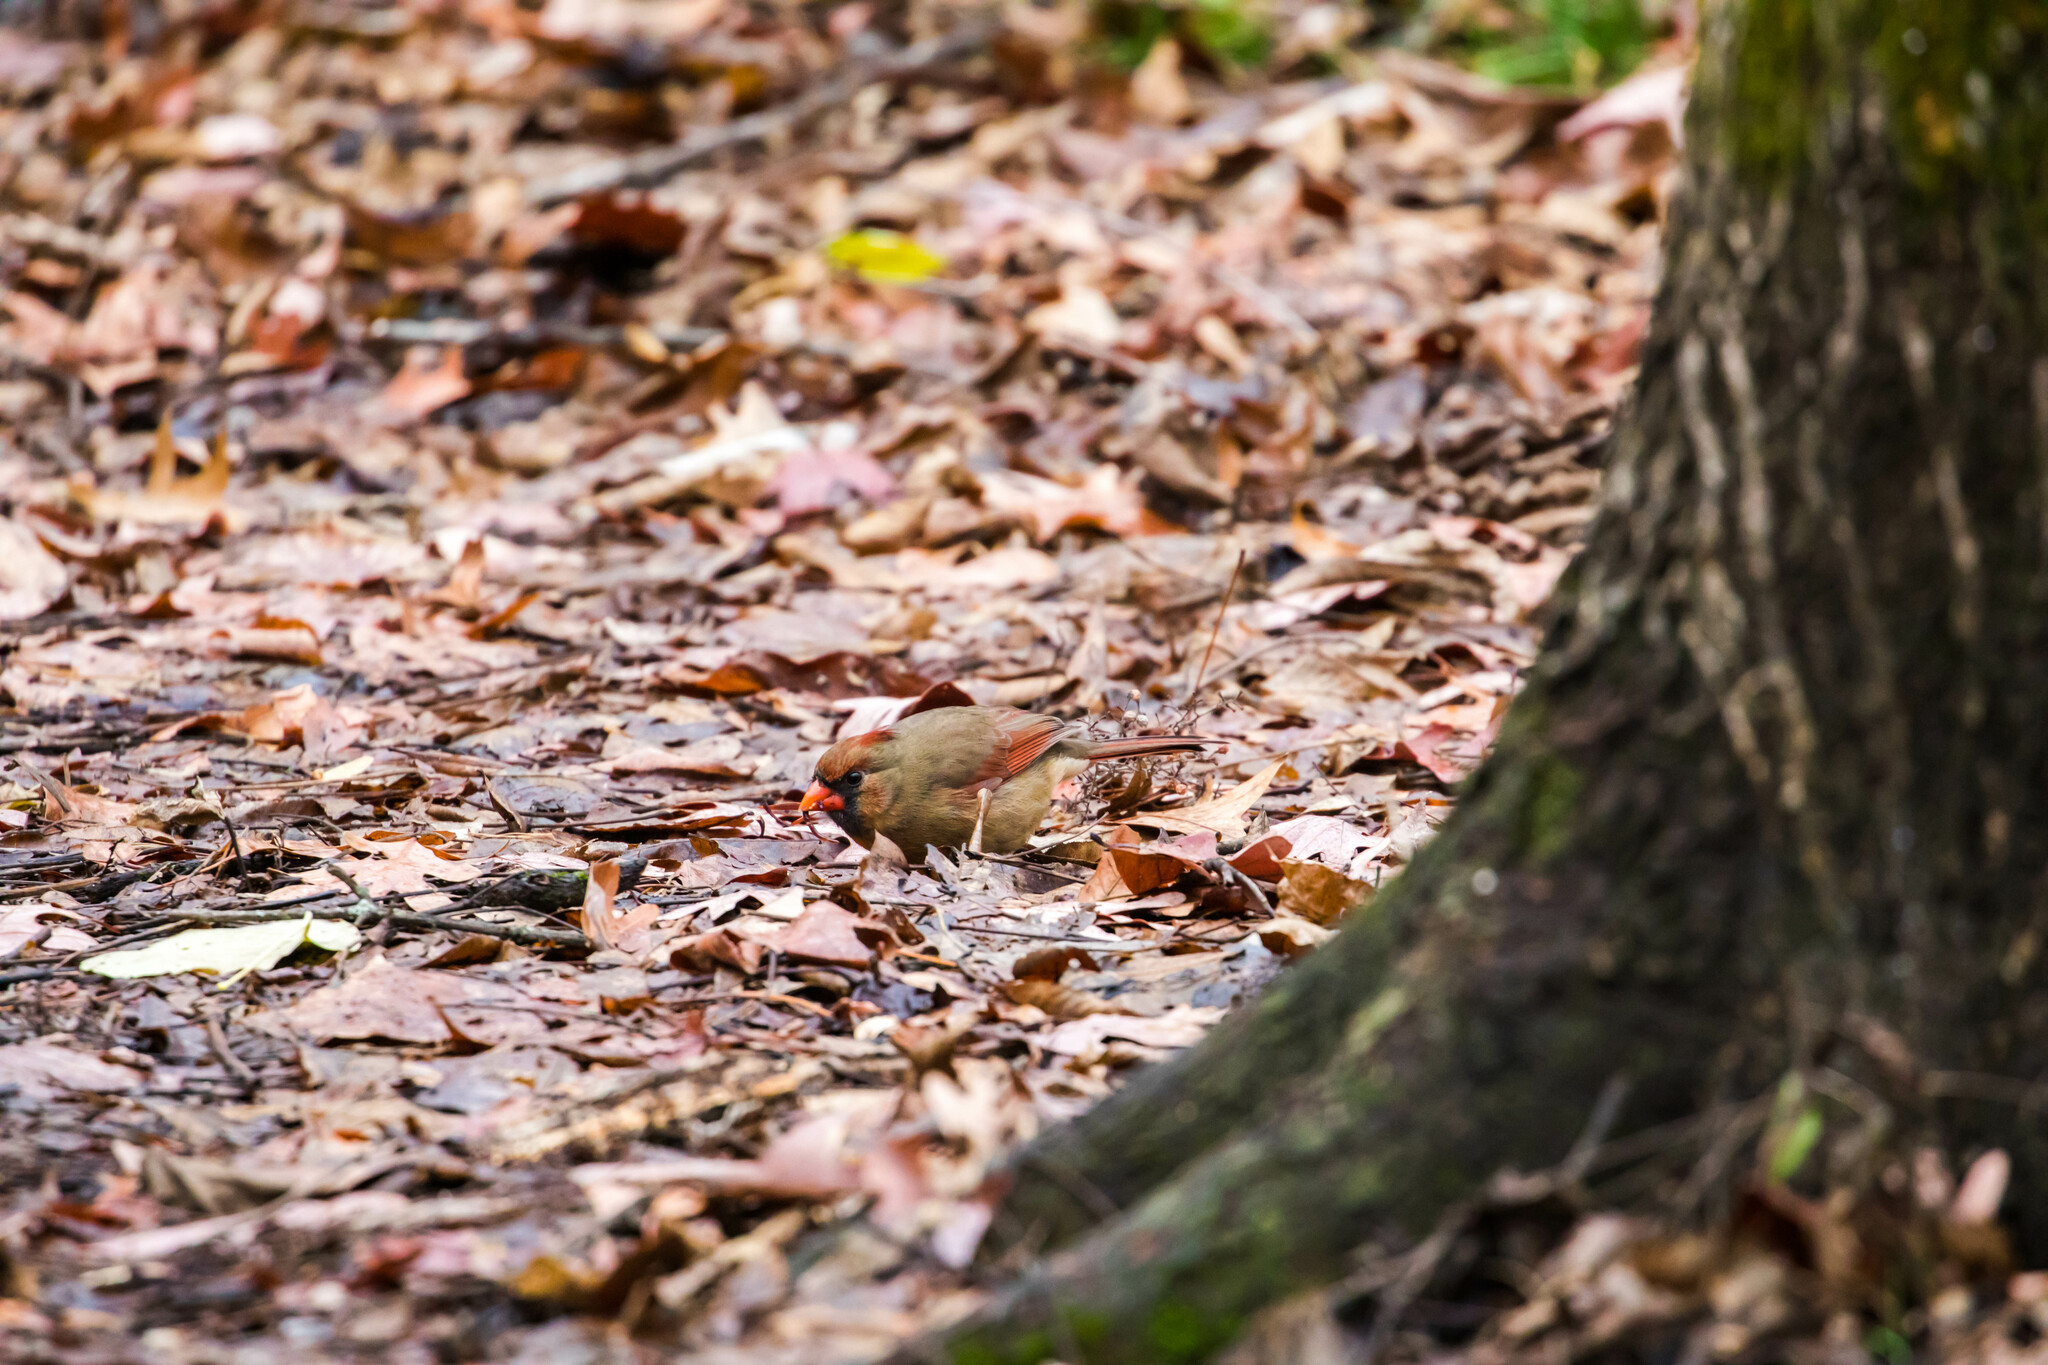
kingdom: Animalia
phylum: Chordata
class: Aves
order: Passeriformes
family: Cardinalidae
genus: Cardinalis
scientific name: Cardinalis cardinalis
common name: Northern cardinal
